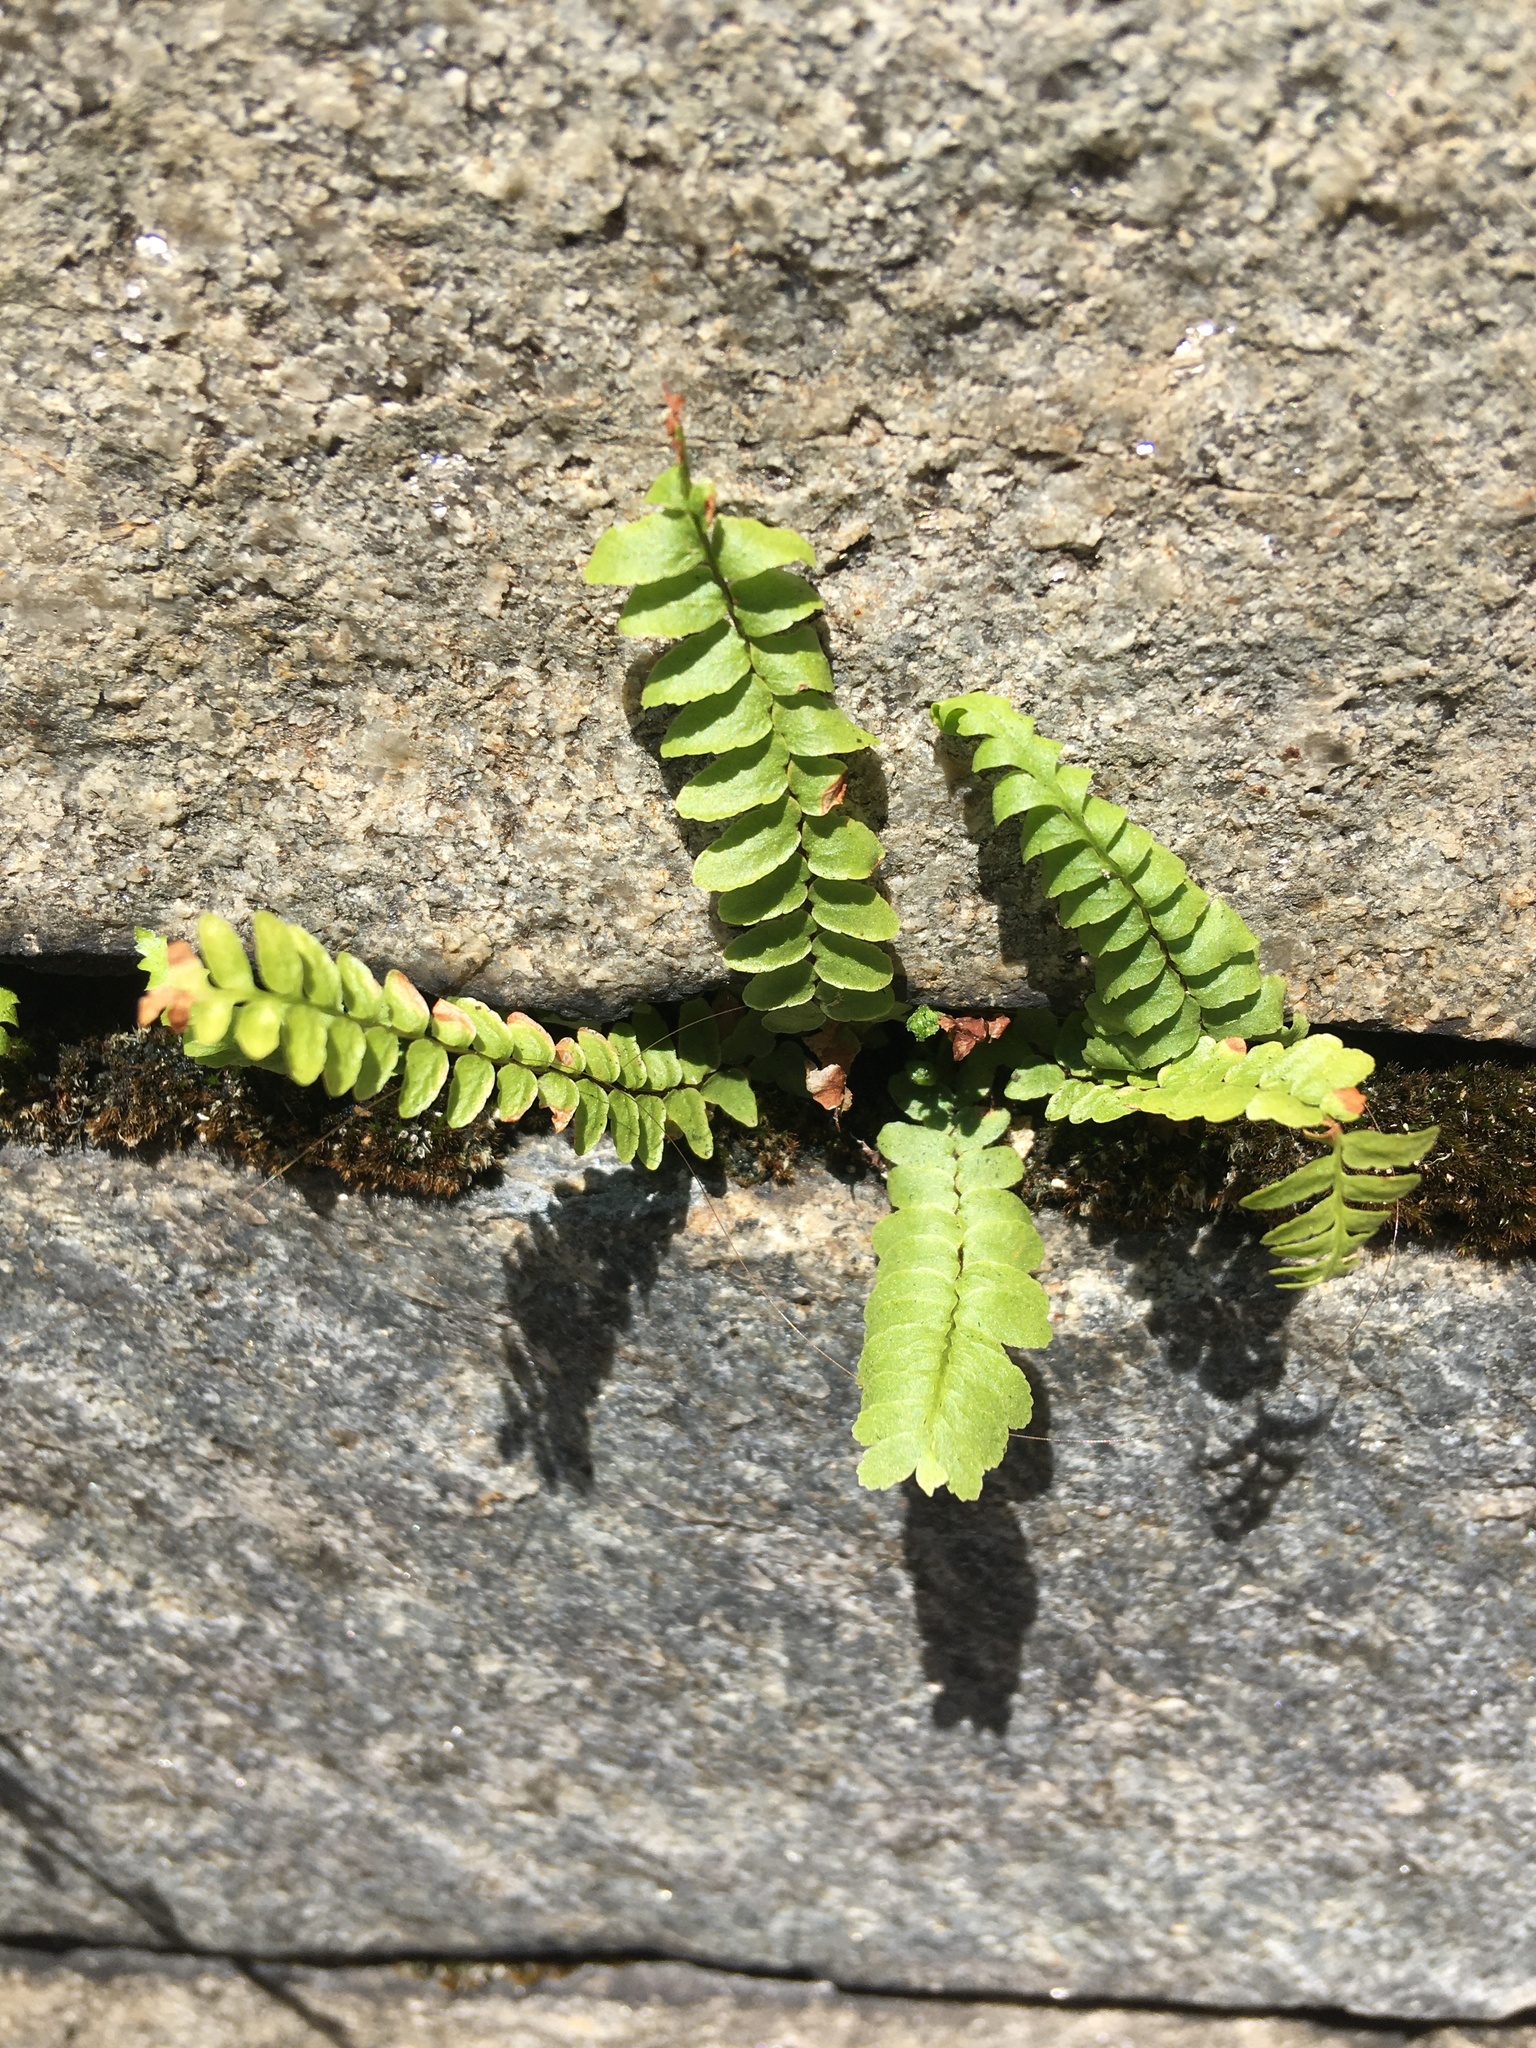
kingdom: Plantae
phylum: Tracheophyta
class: Polypodiopsida
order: Polypodiales
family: Aspleniaceae
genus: Asplenium
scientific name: Asplenium platyneuron
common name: Ebony spleenwort
